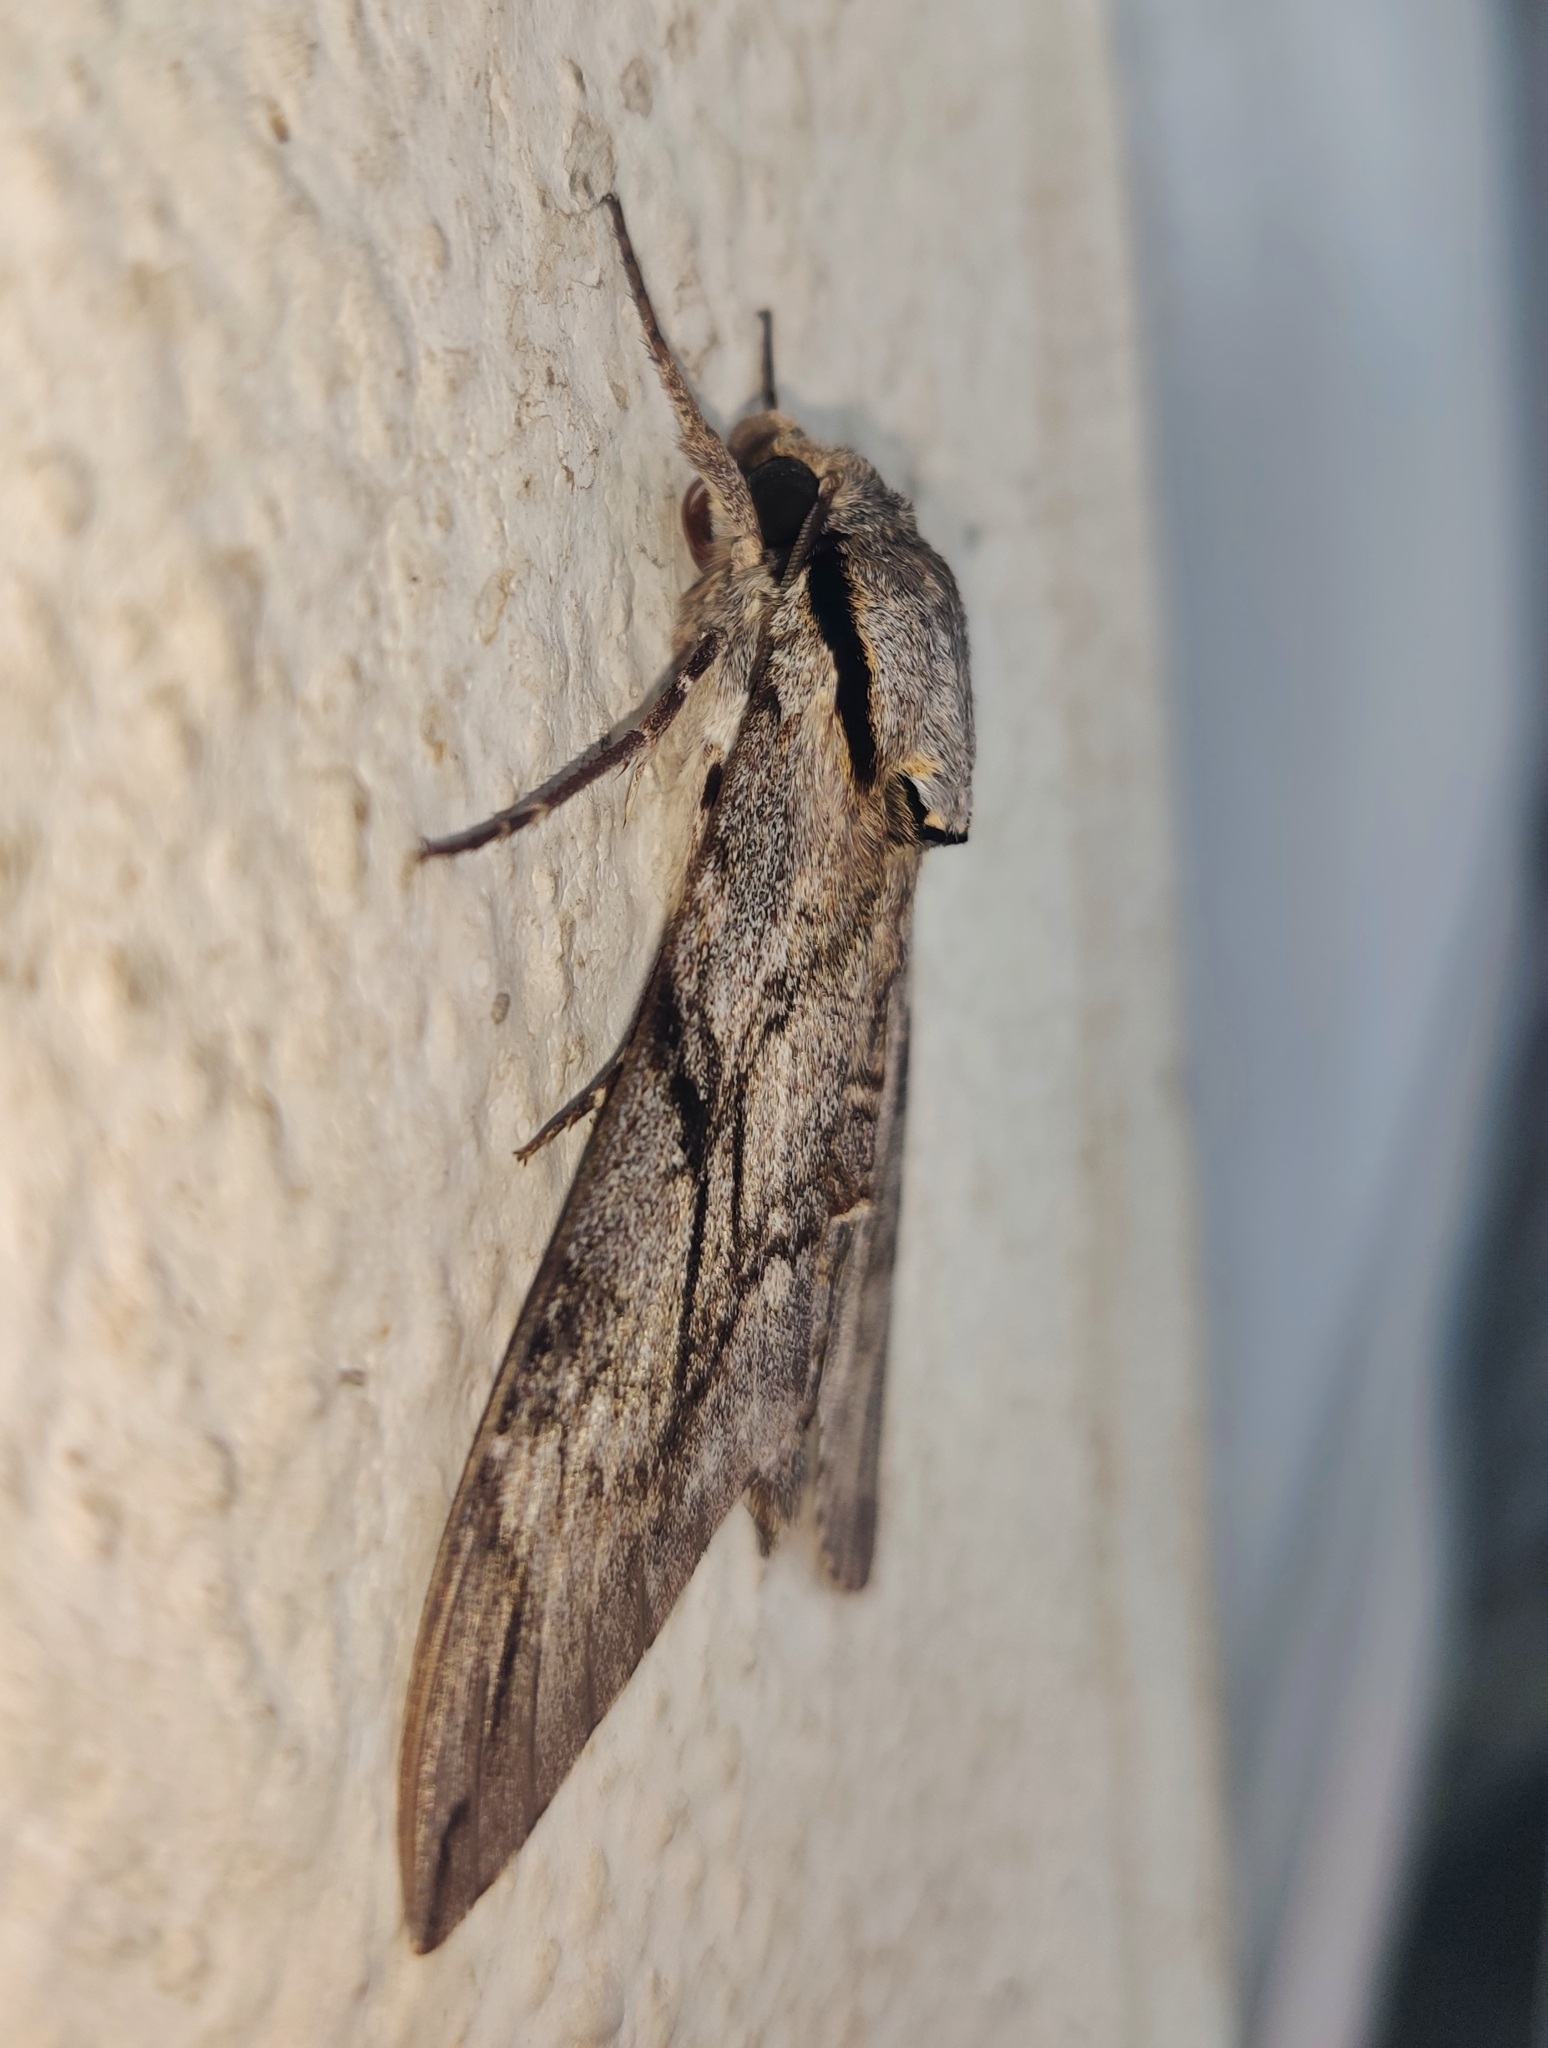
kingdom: Animalia
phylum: Arthropoda
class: Insecta
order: Lepidoptera
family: Sphingidae
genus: Psilogramma
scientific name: Psilogramma increta
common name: Gray hawk moth
